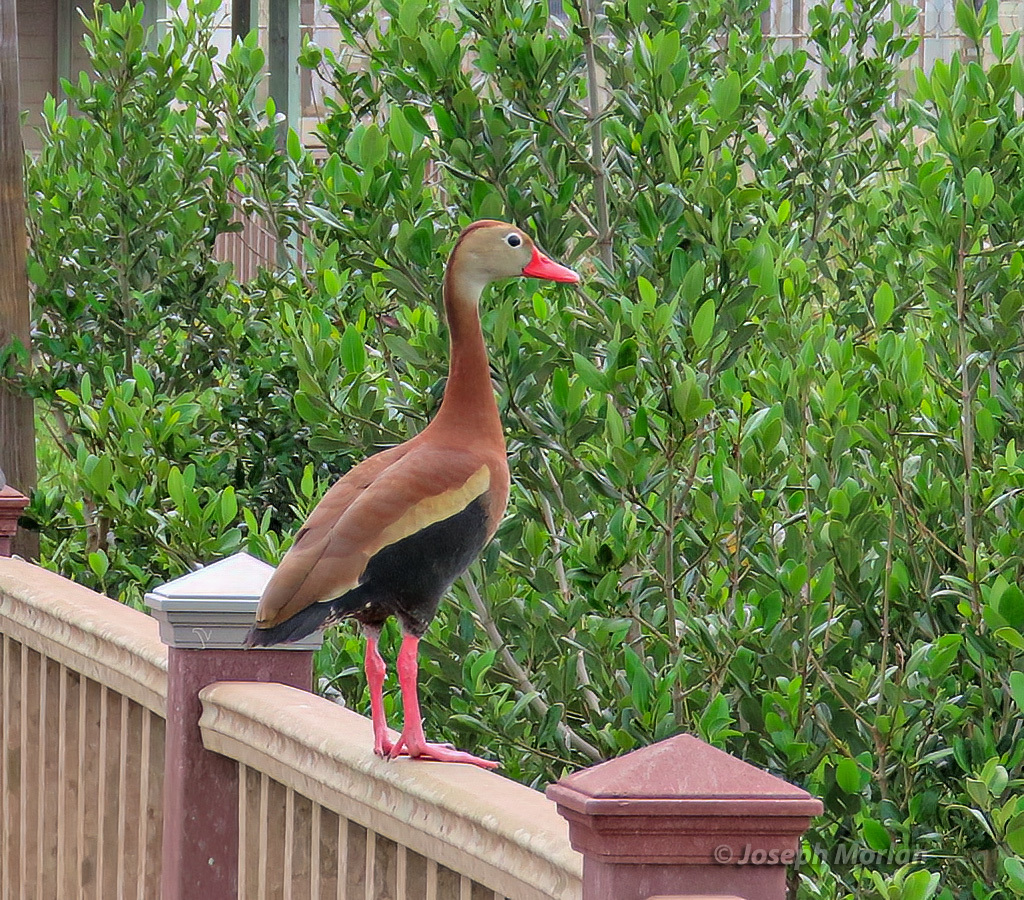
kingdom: Animalia
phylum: Chordata
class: Aves
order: Anseriformes
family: Anatidae
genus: Dendrocygna
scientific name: Dendrocygna autumnalis
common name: Black-bellied whistling duck
